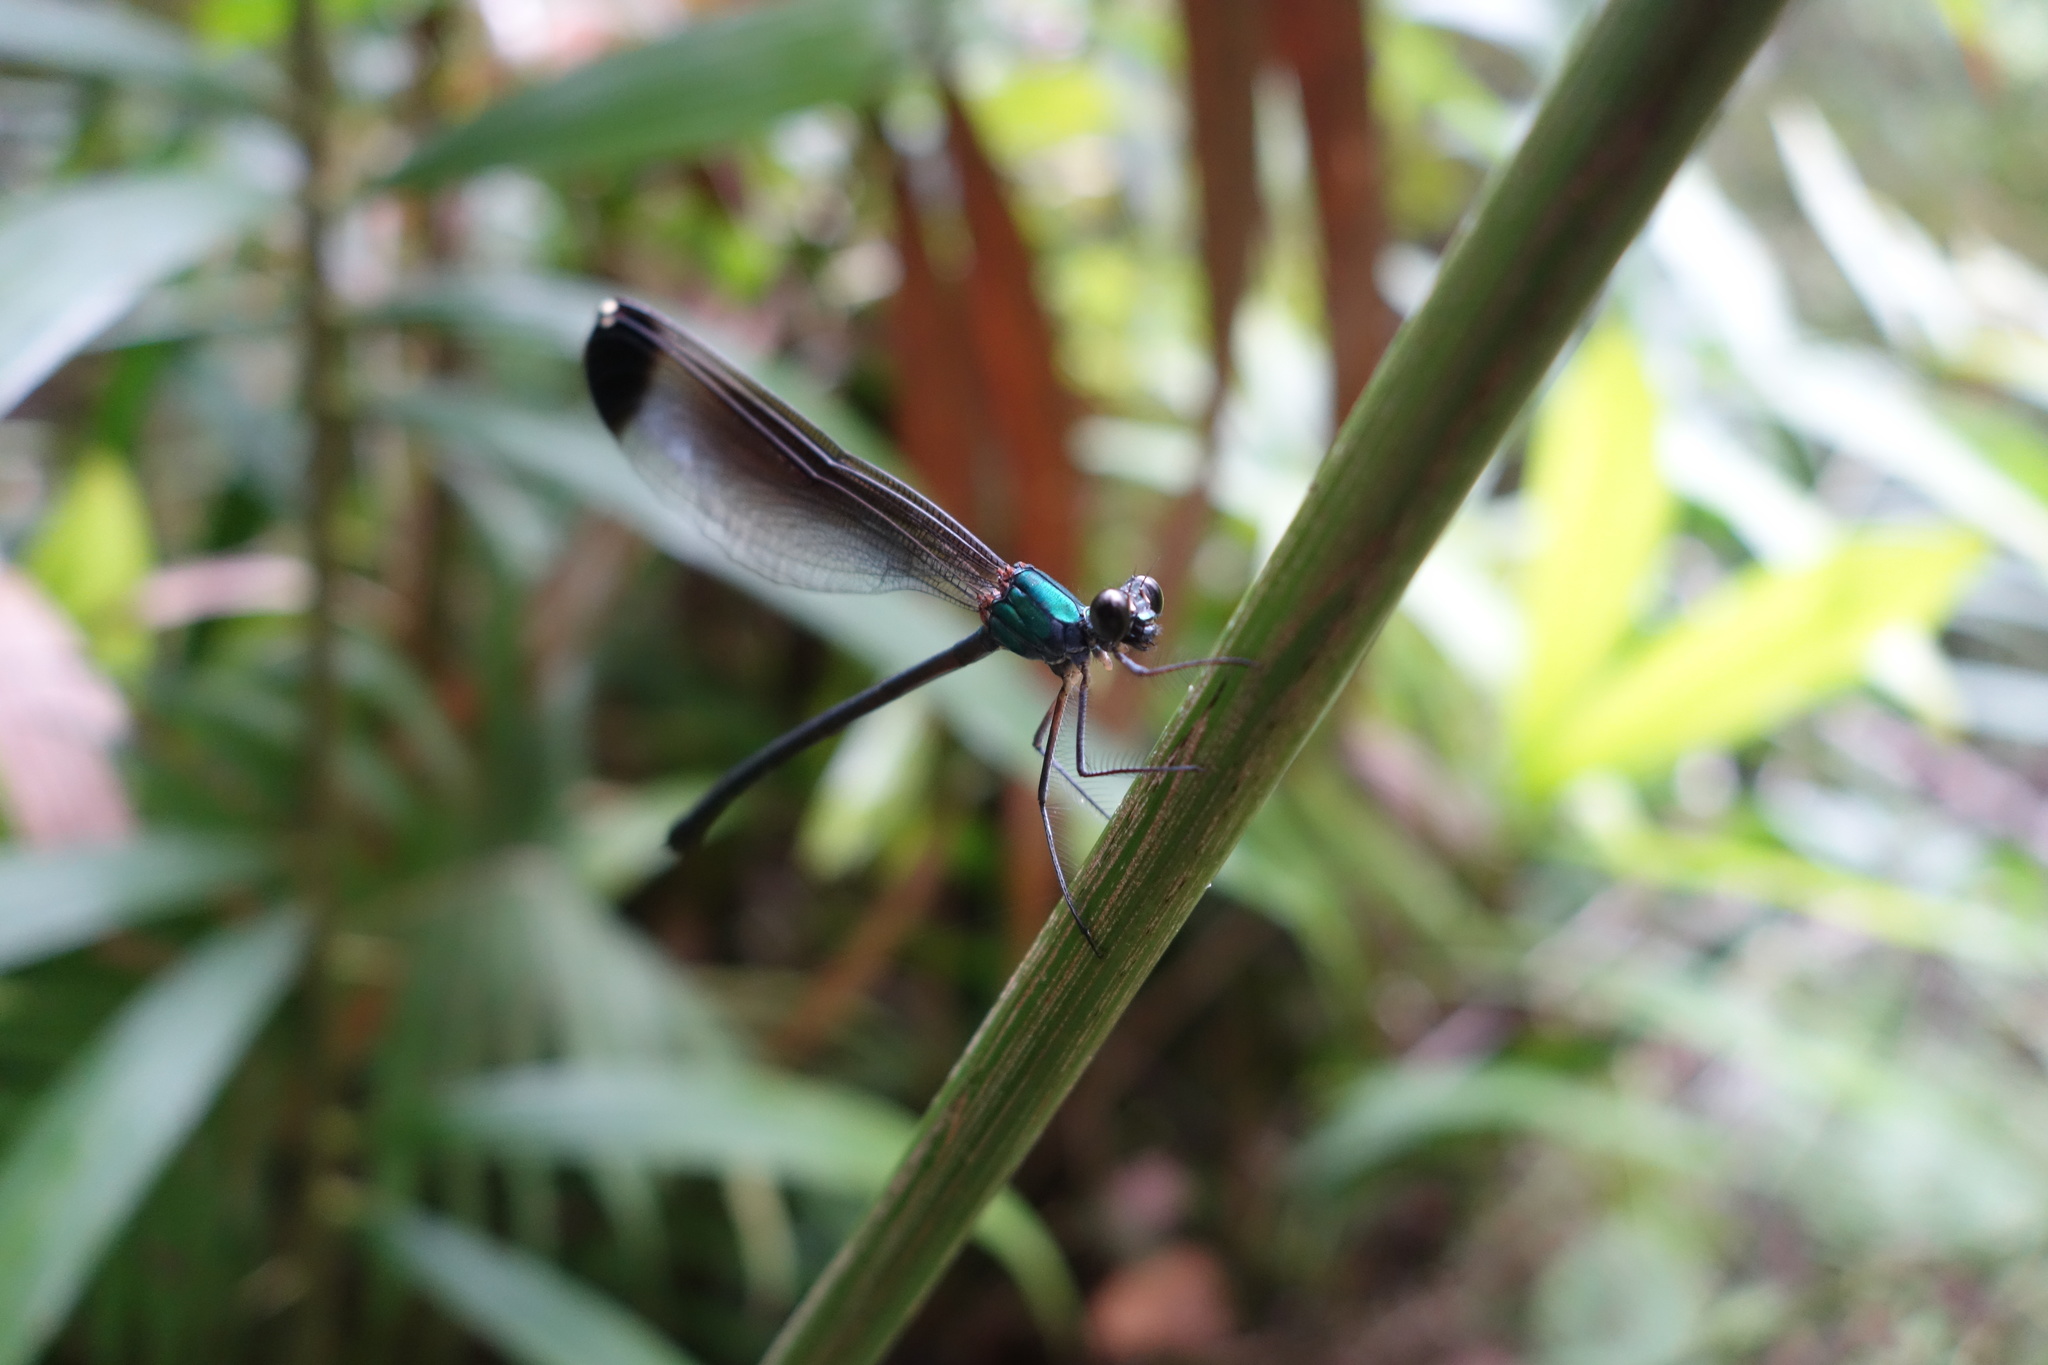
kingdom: Animalia
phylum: Arthropoda
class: Insecta
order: Odonata
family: Calopterygidae
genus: Psolodesmus
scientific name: Psolodesmus mandarinus
